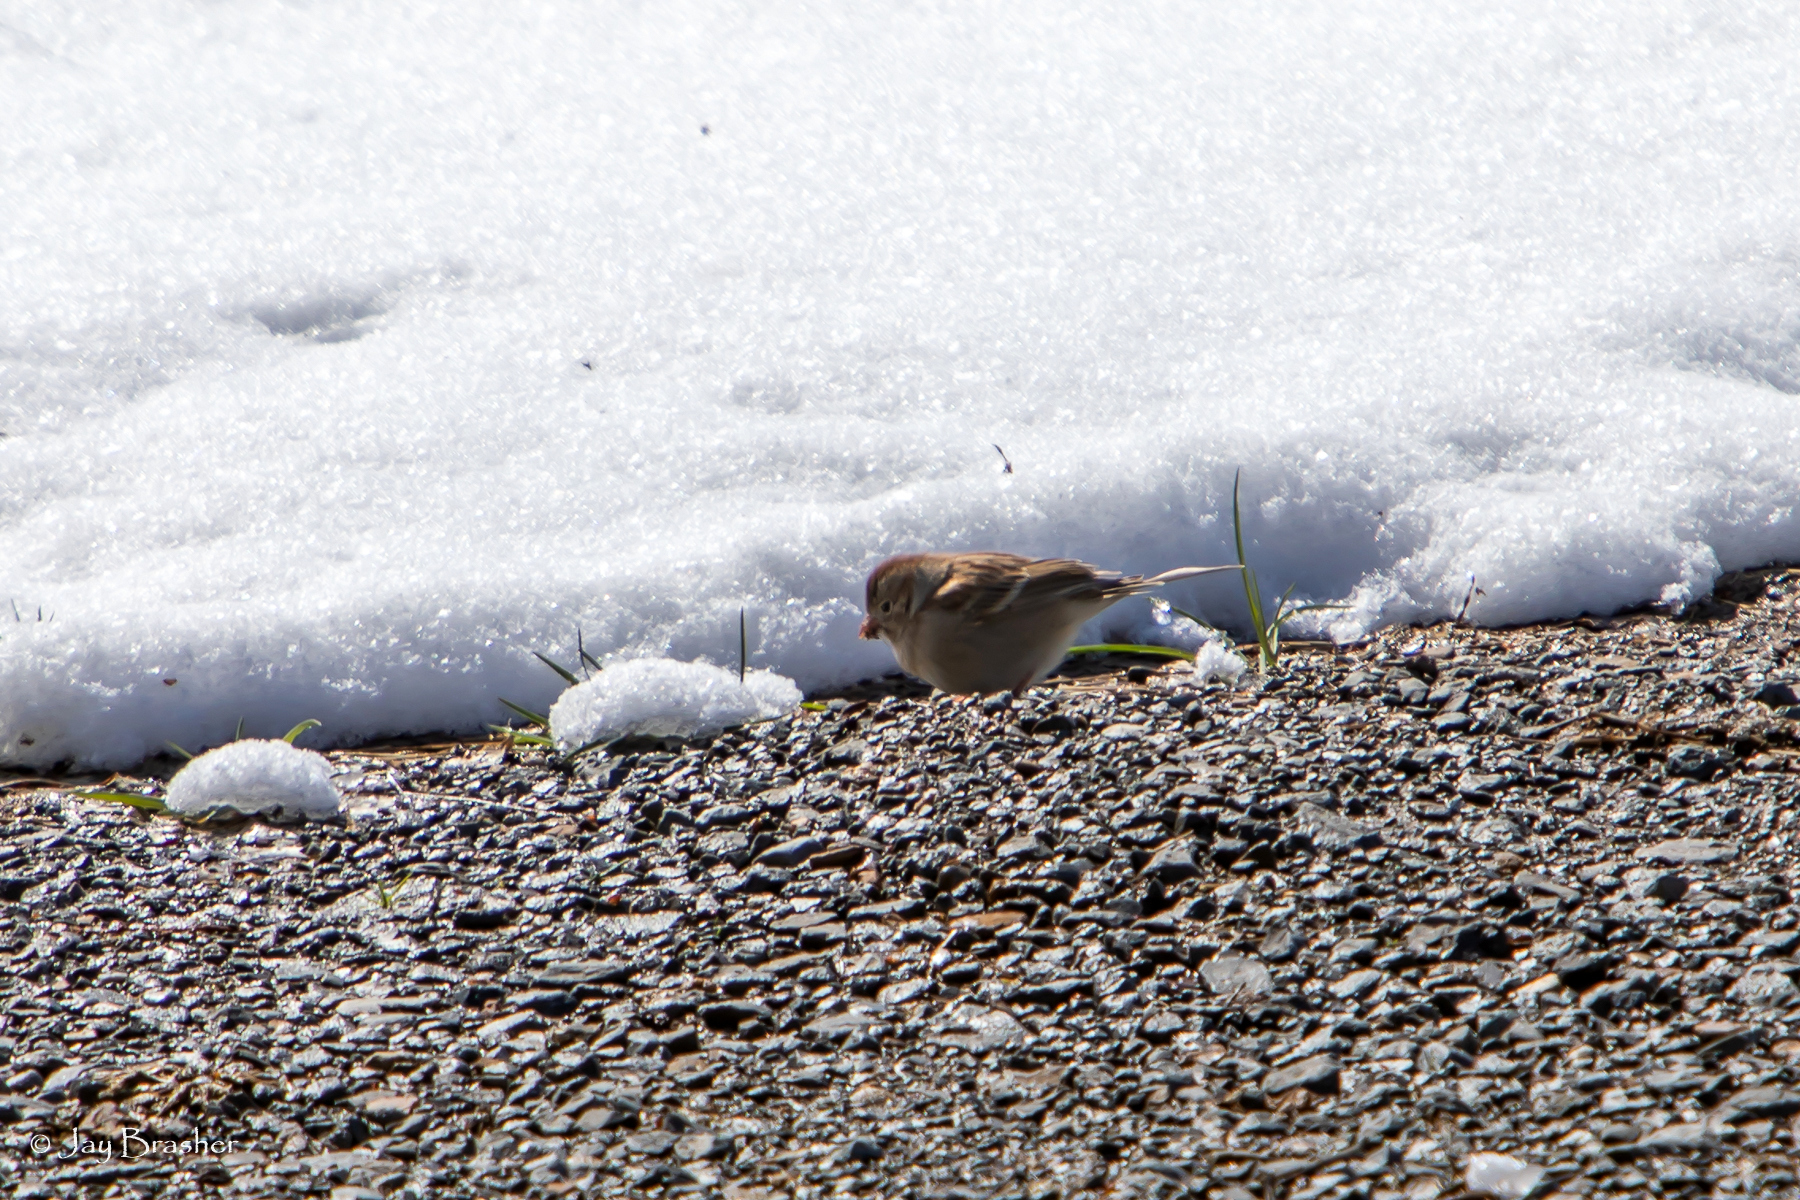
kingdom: Animalia
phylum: Chordata
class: Aves
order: Passeriformes
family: Passerellidae
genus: Spizella
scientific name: Spizella pusilla
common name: Field sparrow
